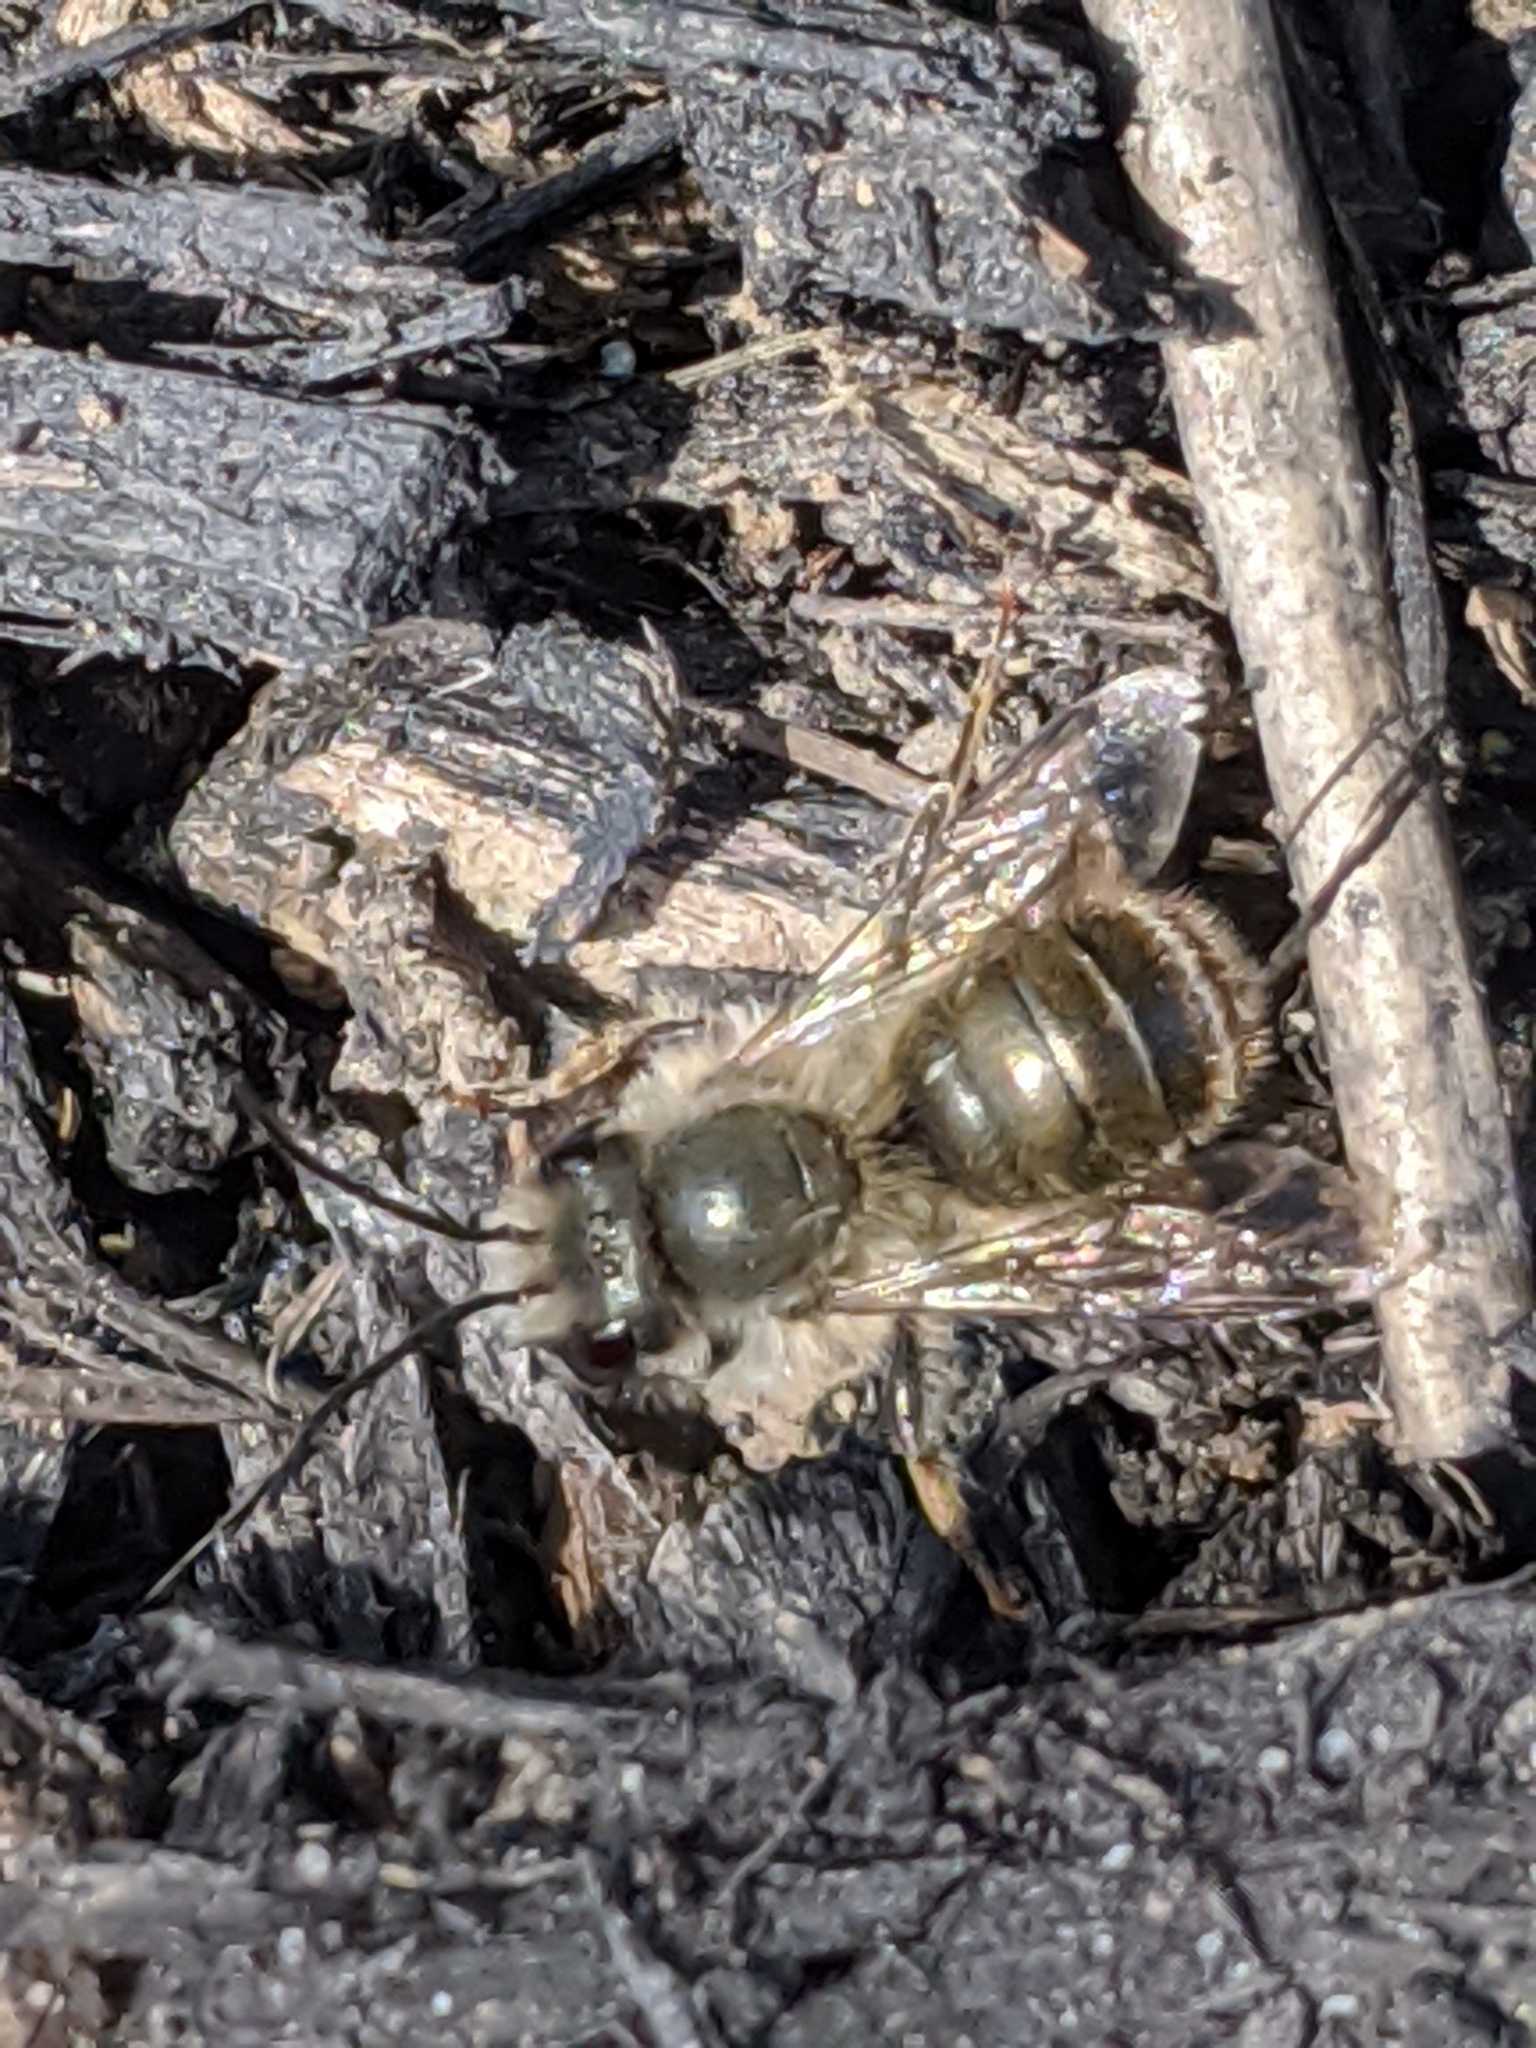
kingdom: Animalia
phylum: Arthropoda
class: Insecta
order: Hymenoptera
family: Megachilidae
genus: Osmia
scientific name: Osmia
